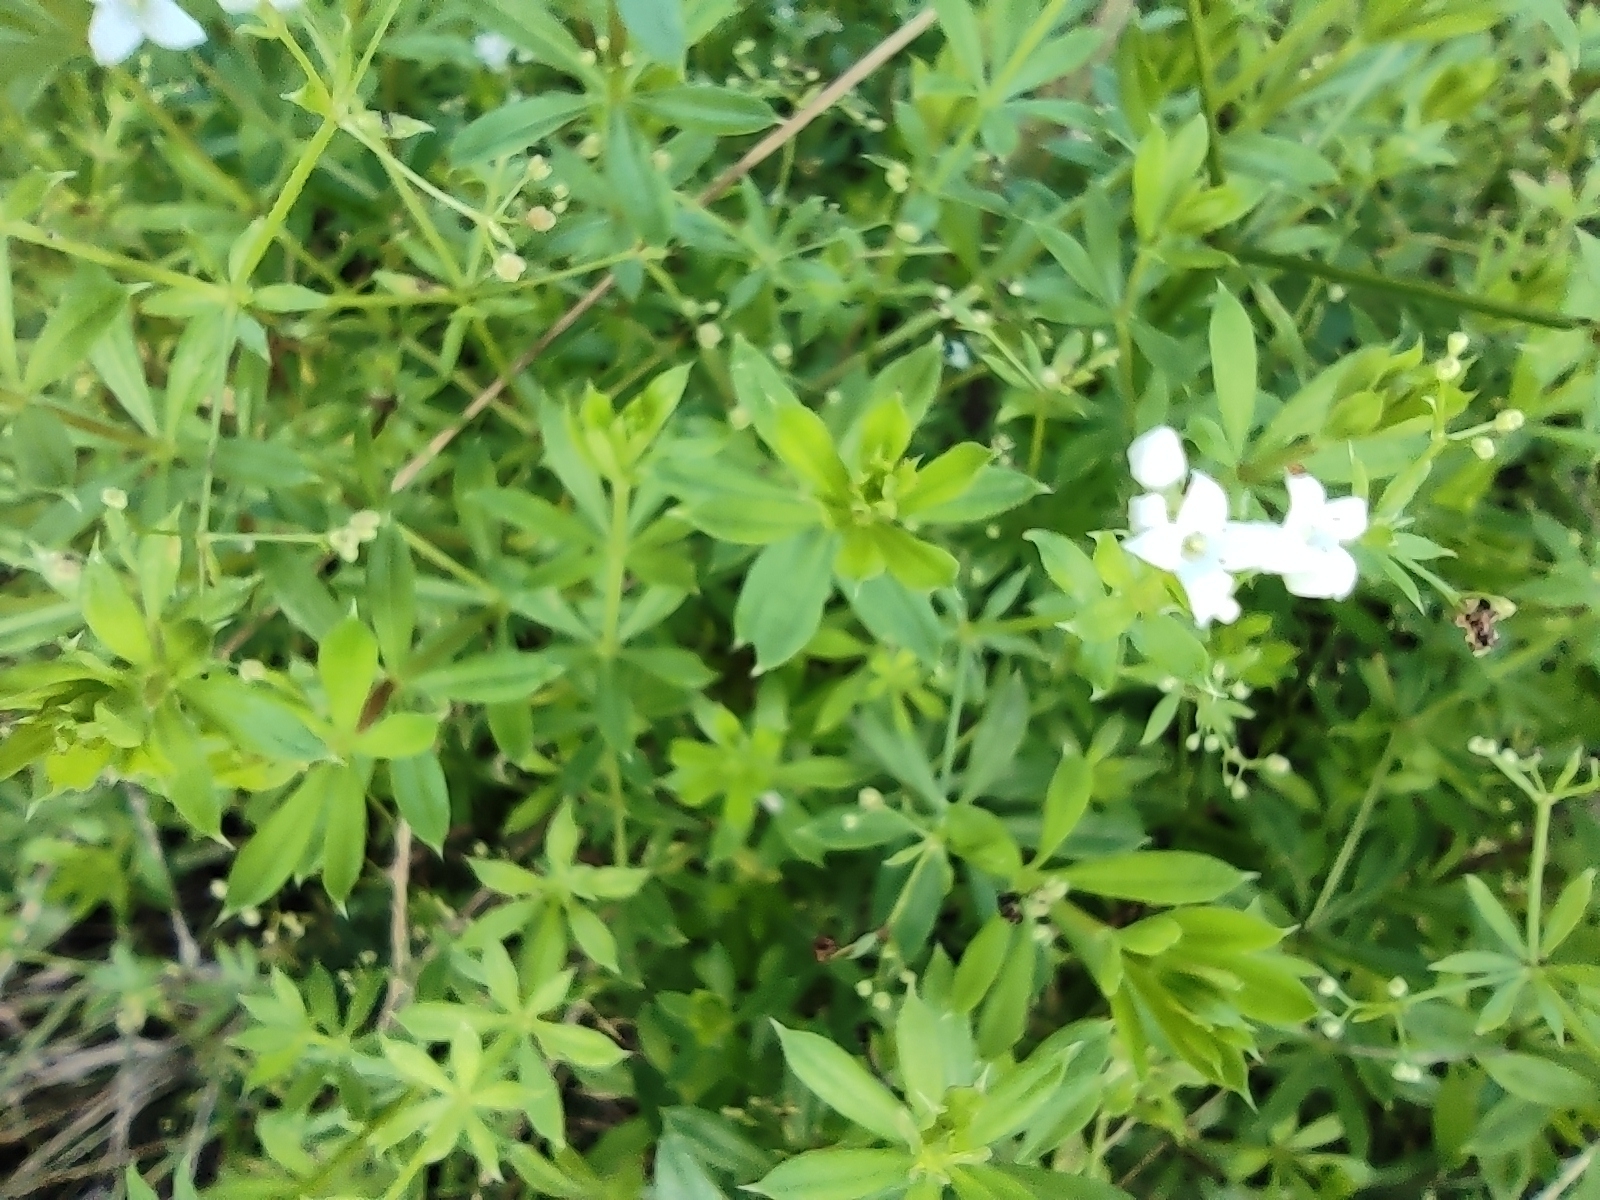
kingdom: Plantae
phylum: Tracheophyta
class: Magnoliopsida
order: Gentianales
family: Rubiaceae
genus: Galium
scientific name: Galium rivale
